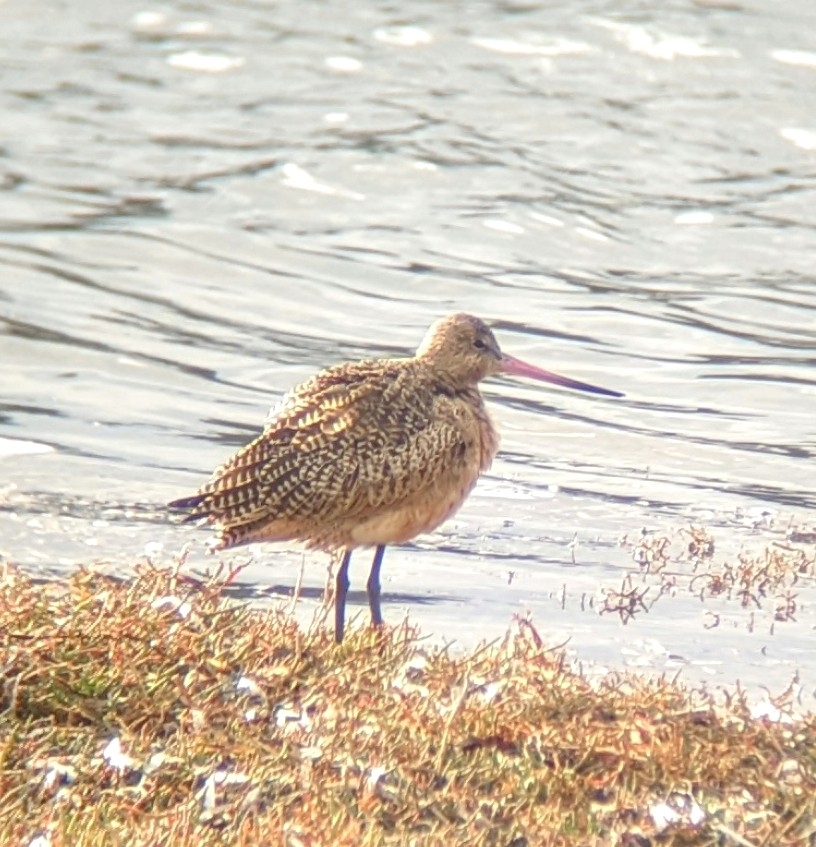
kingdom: Animalia
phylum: Chordata
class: Aves
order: Charadriiformes
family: Scolopacidae
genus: Limosa
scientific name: Limosa fedoa
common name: Marbled godwit
